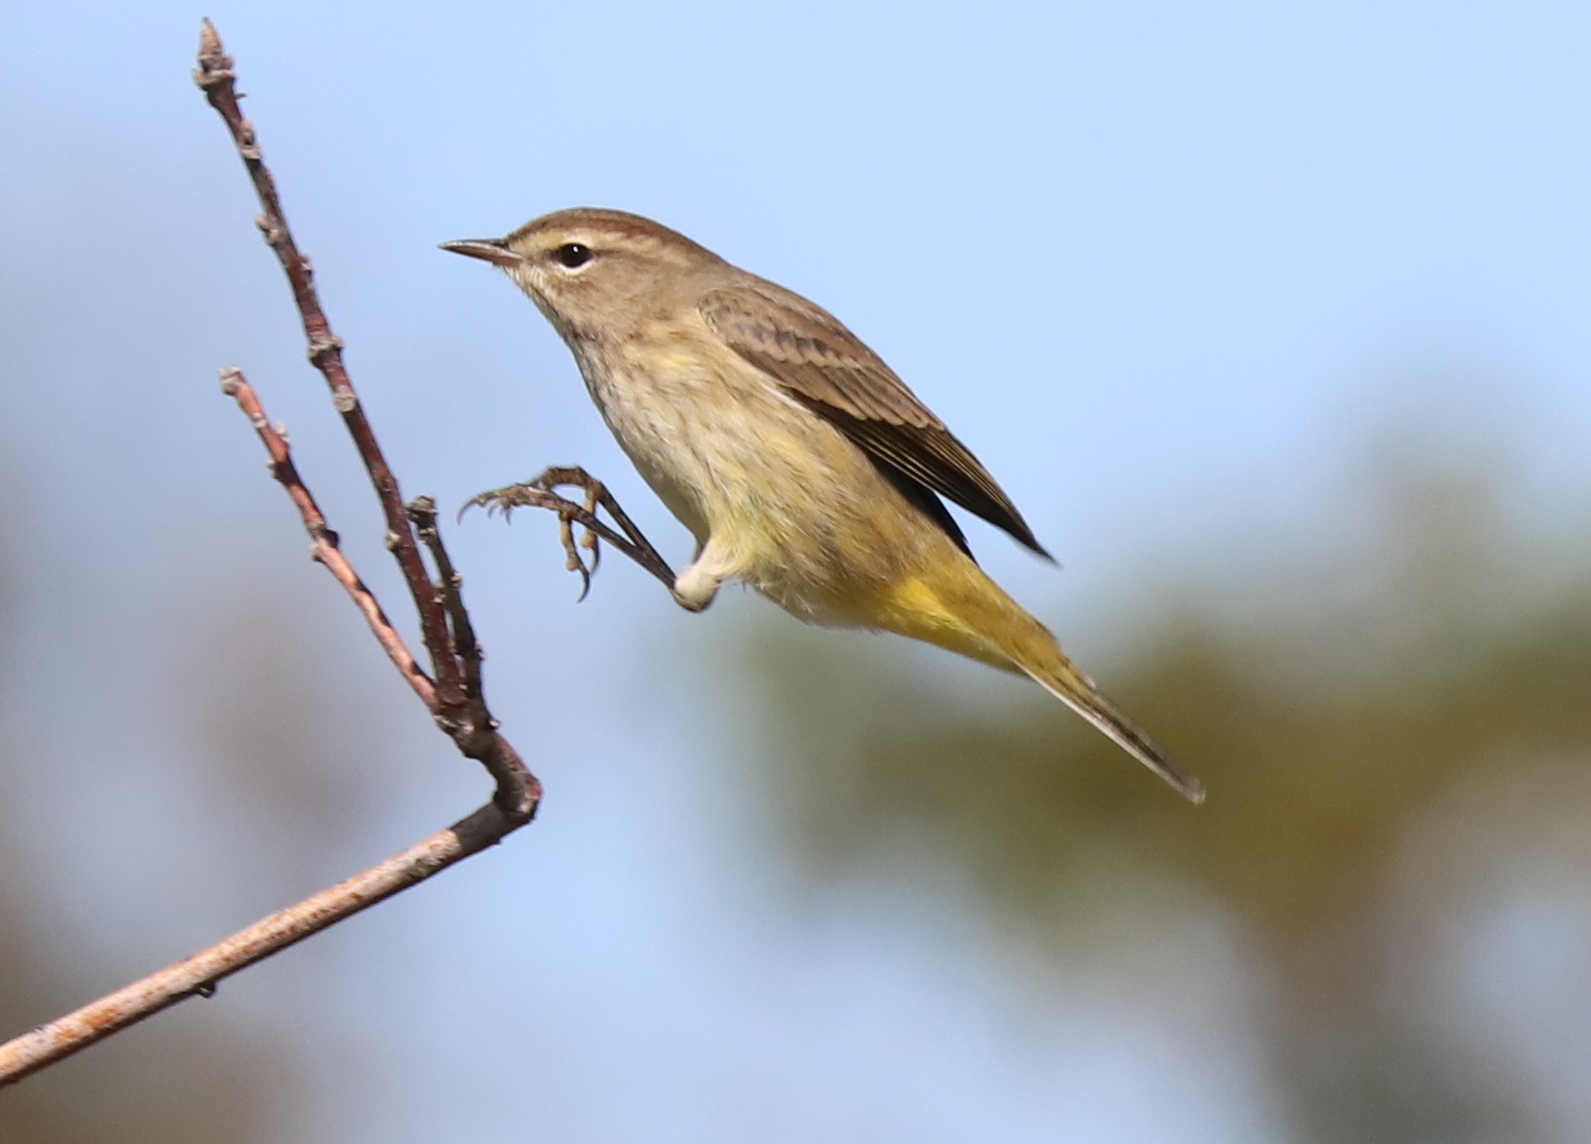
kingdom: Animalia
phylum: Chordata
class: Aves
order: Passeriformes
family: Parulidae
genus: Setophaga
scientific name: Setophaga palmarum
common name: Palm warbler
